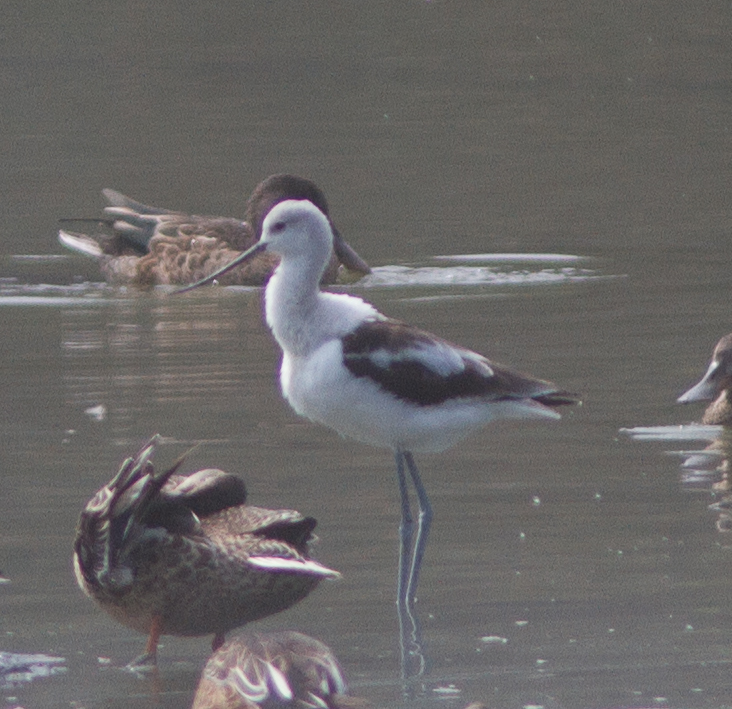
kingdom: Animalia
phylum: Chordata
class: Aves
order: Charadriiformes
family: Recurvirostridae
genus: Recurvirostra
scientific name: Recurvirostra americana
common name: American avocet
